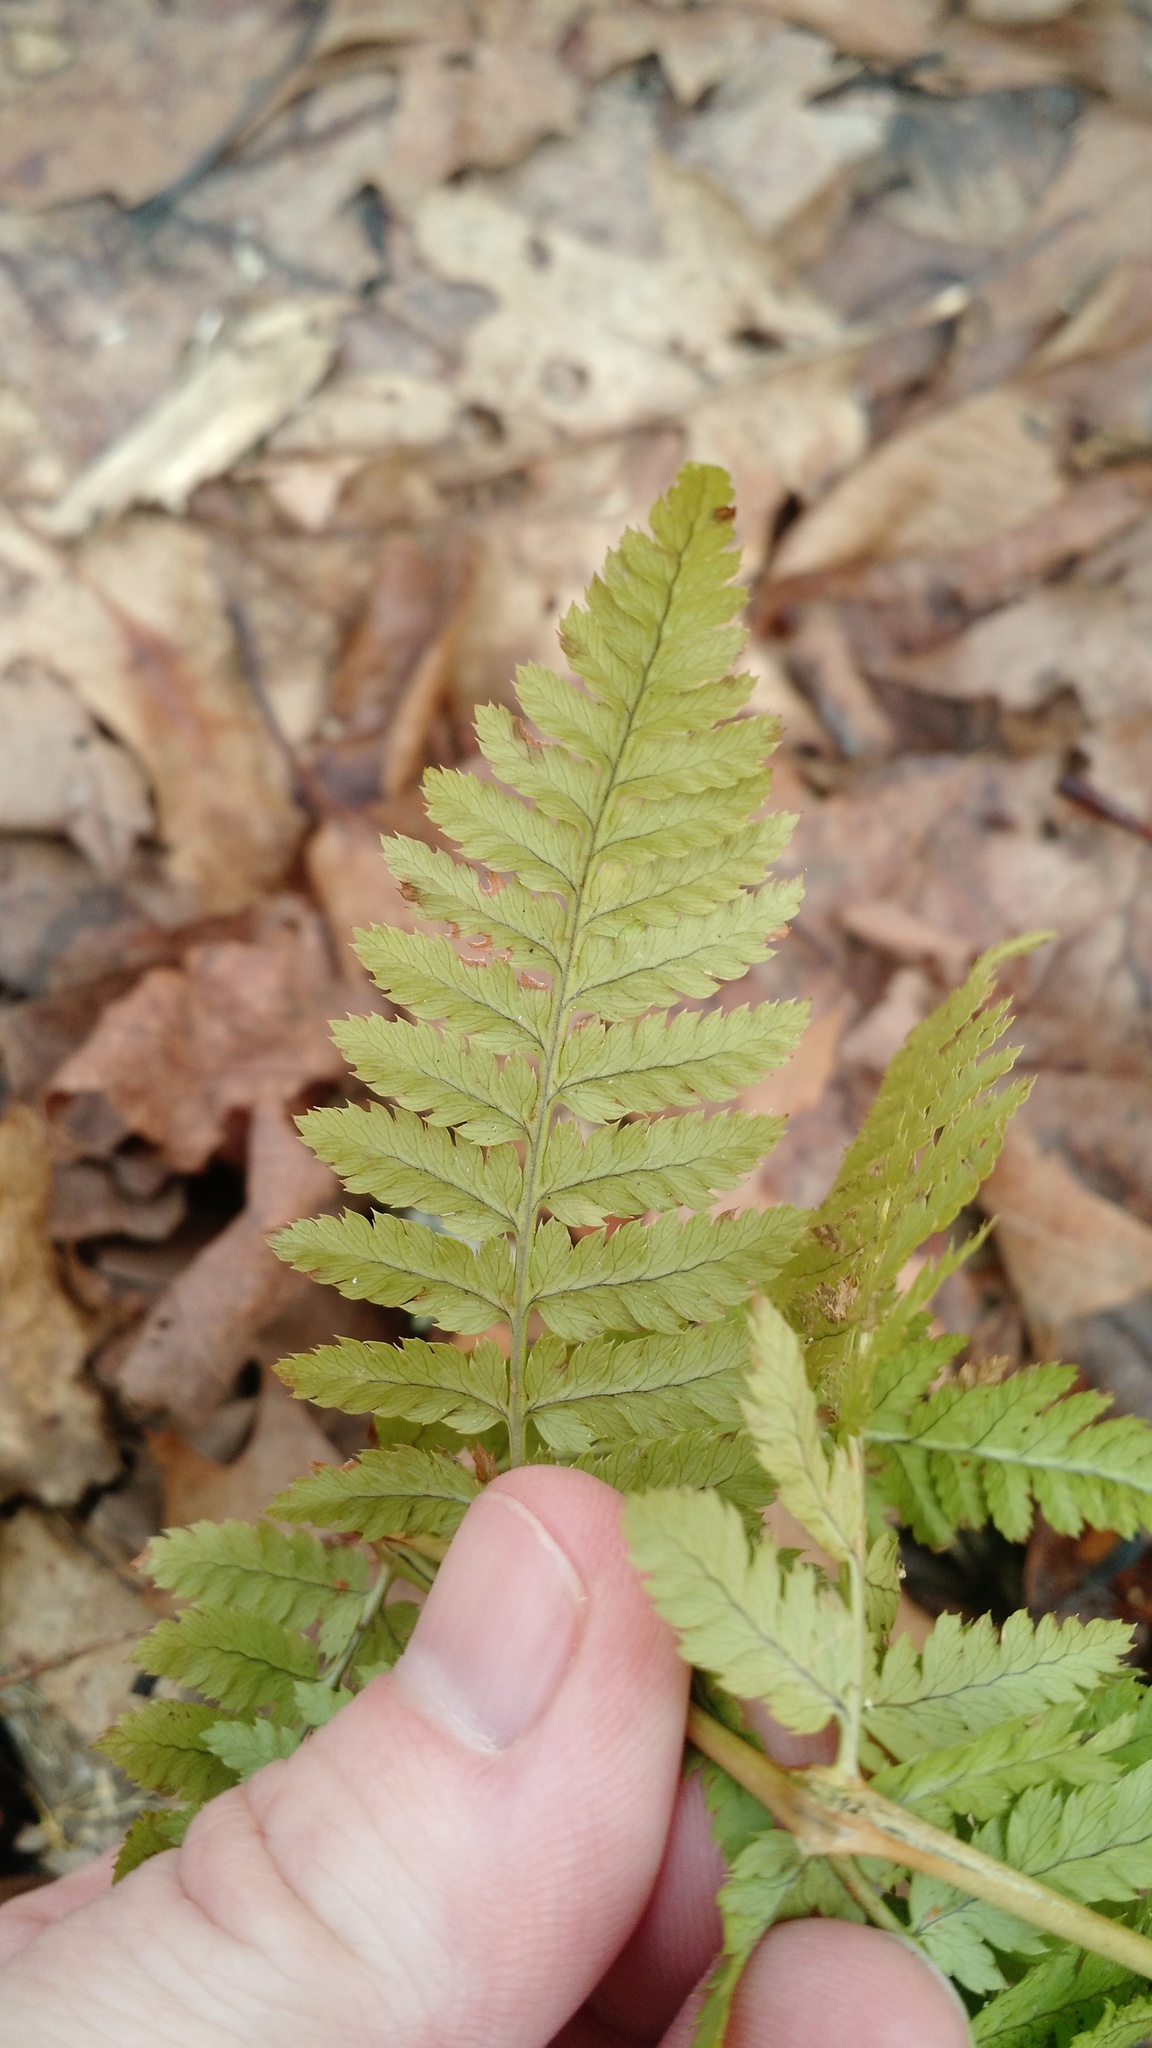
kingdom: Plantae
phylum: Tracheophyta
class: Polypodiopsida
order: Polypodiales
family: Dryopteridaceae
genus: Dryopteris
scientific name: Dryopteris intermedia
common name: Evergreen wood fern
